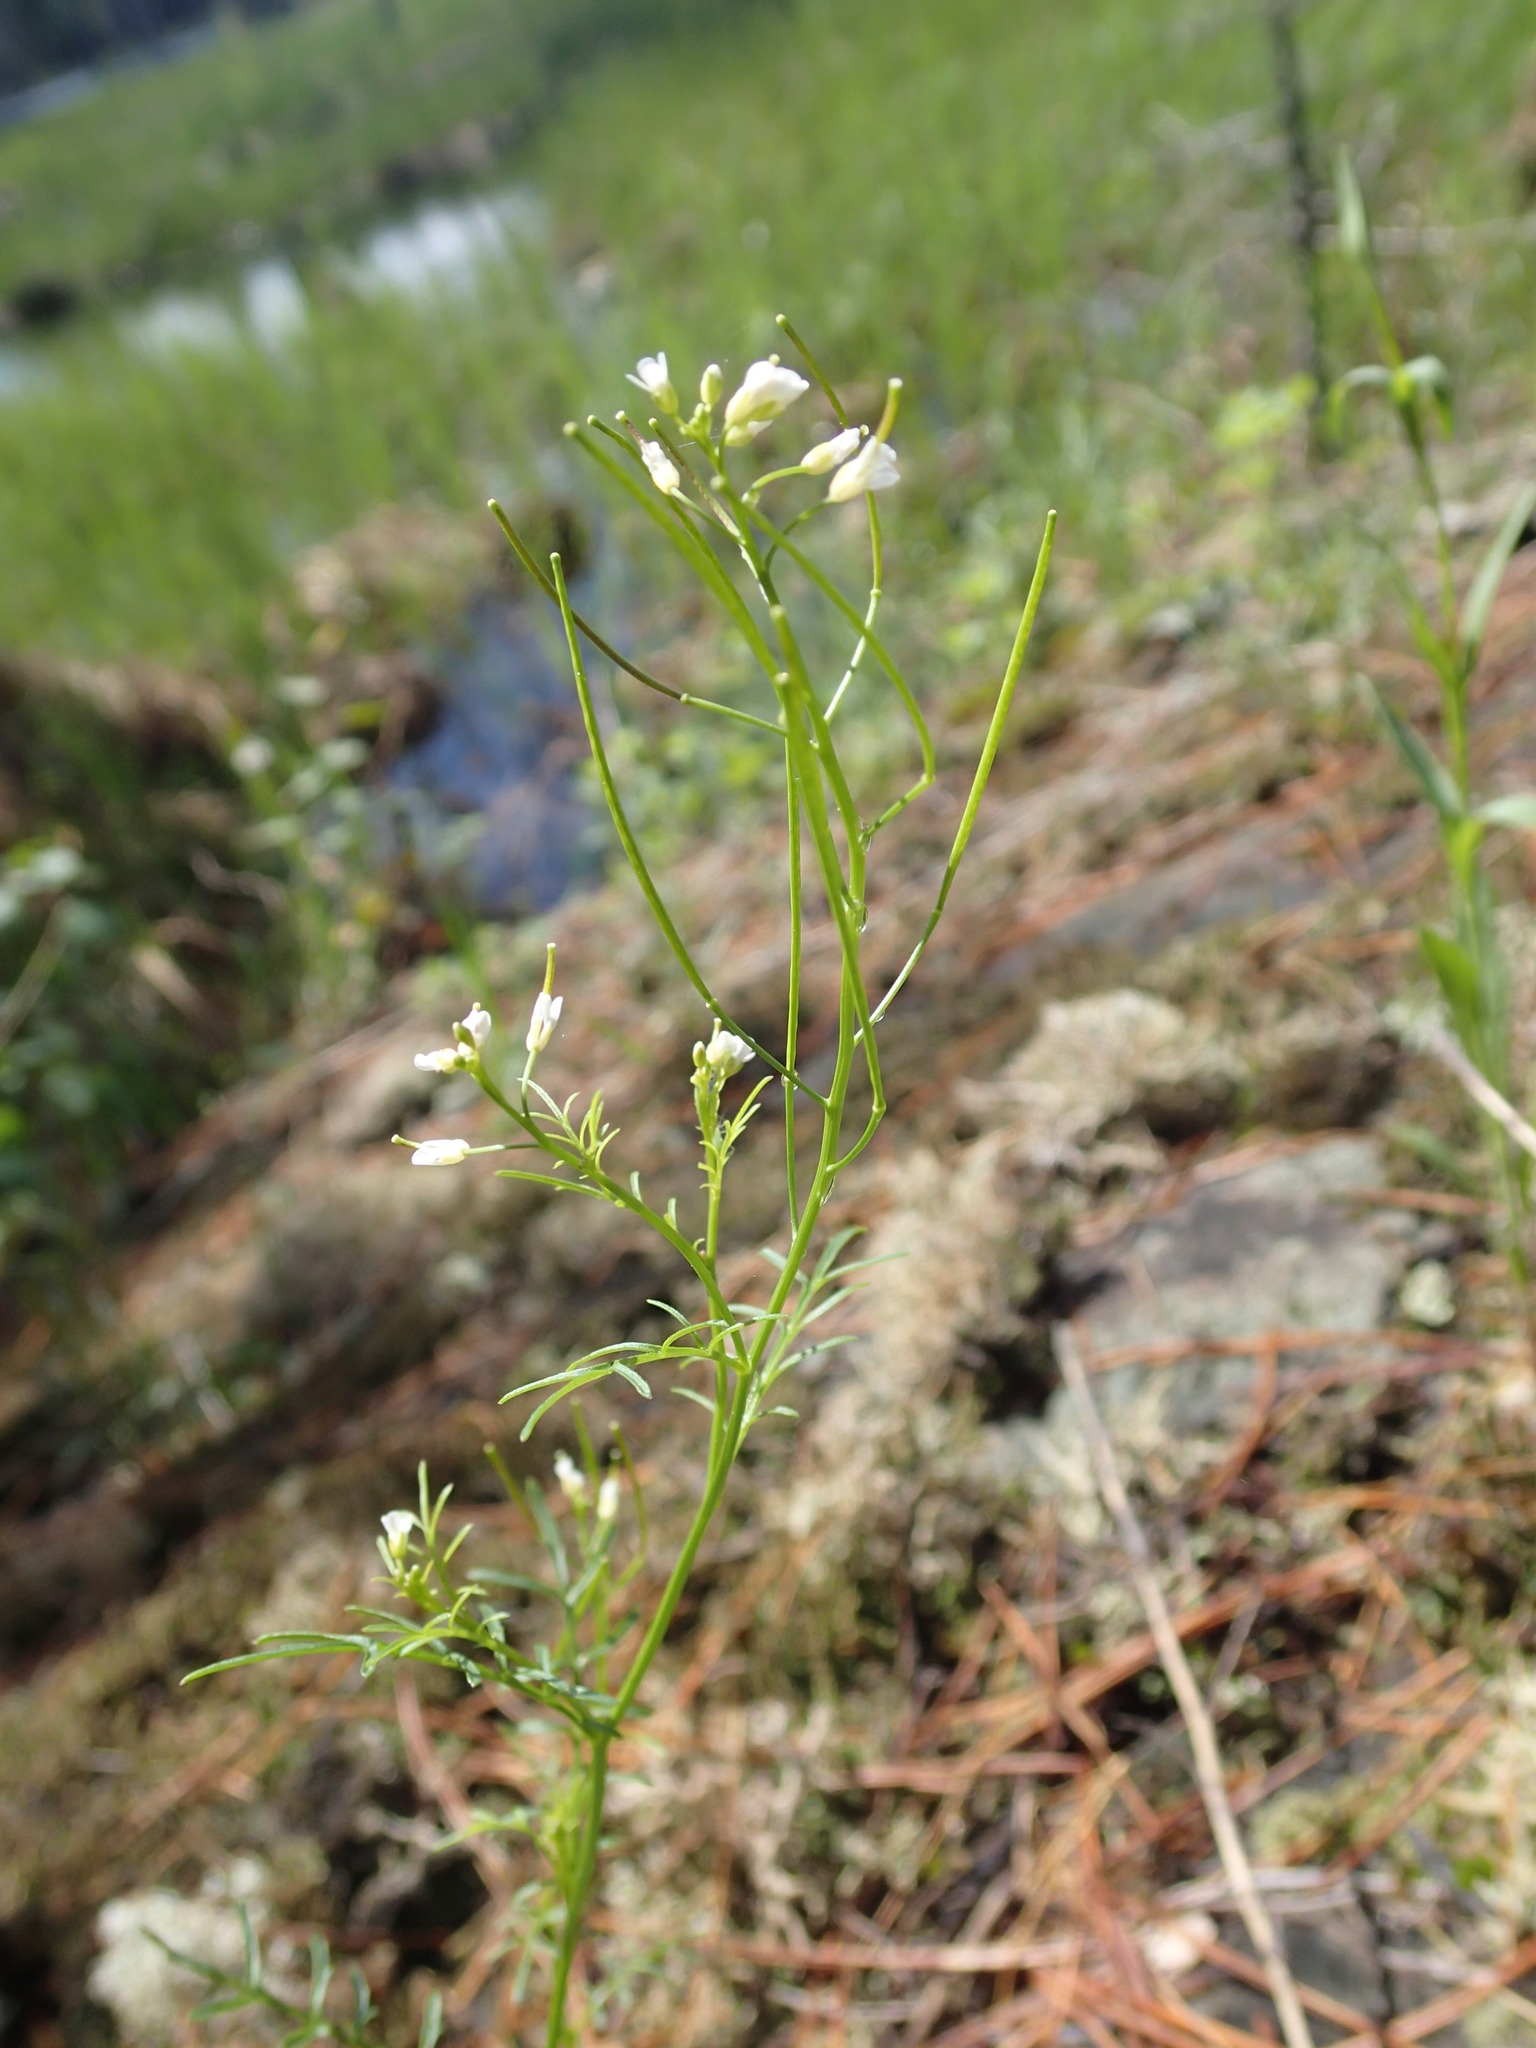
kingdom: Plantae
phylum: Tracheophyta
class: Magnoliopsida
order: Brassicales
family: Brassicaceae
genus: Cardamine
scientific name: Cardamine pensylvanica
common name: Pennsylvania bittercress
